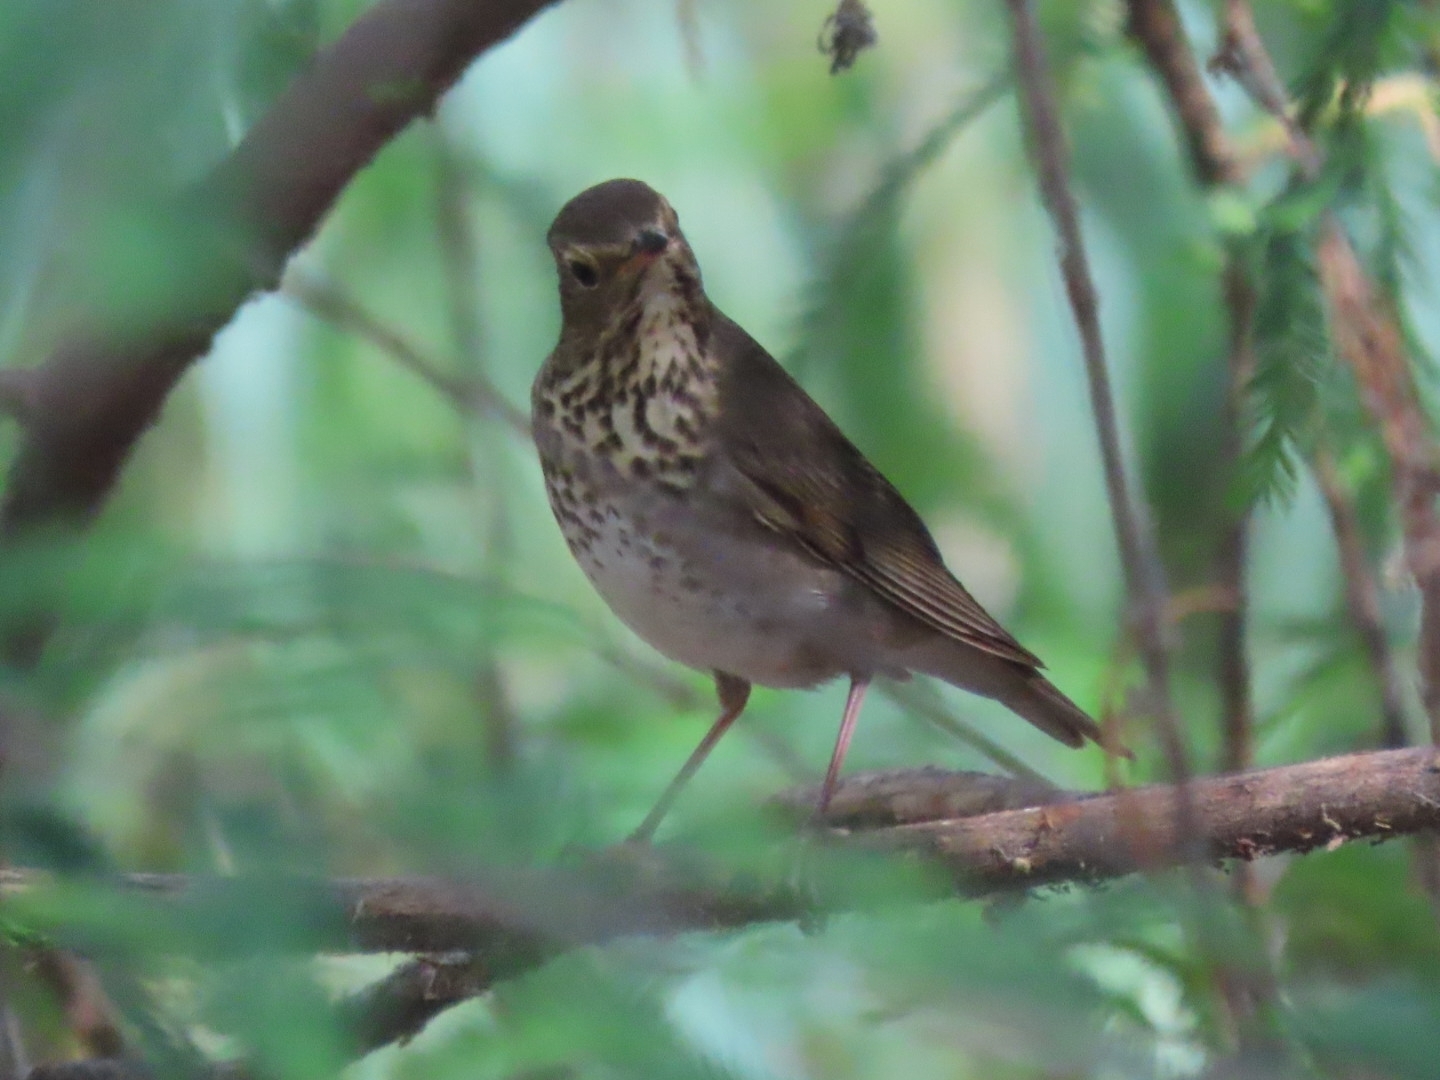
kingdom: Animalia
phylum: Chordata
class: Aves
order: Passeriformes
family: Turdidae
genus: Catharus
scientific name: Catharus ustulatus
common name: Swainson's thrush
